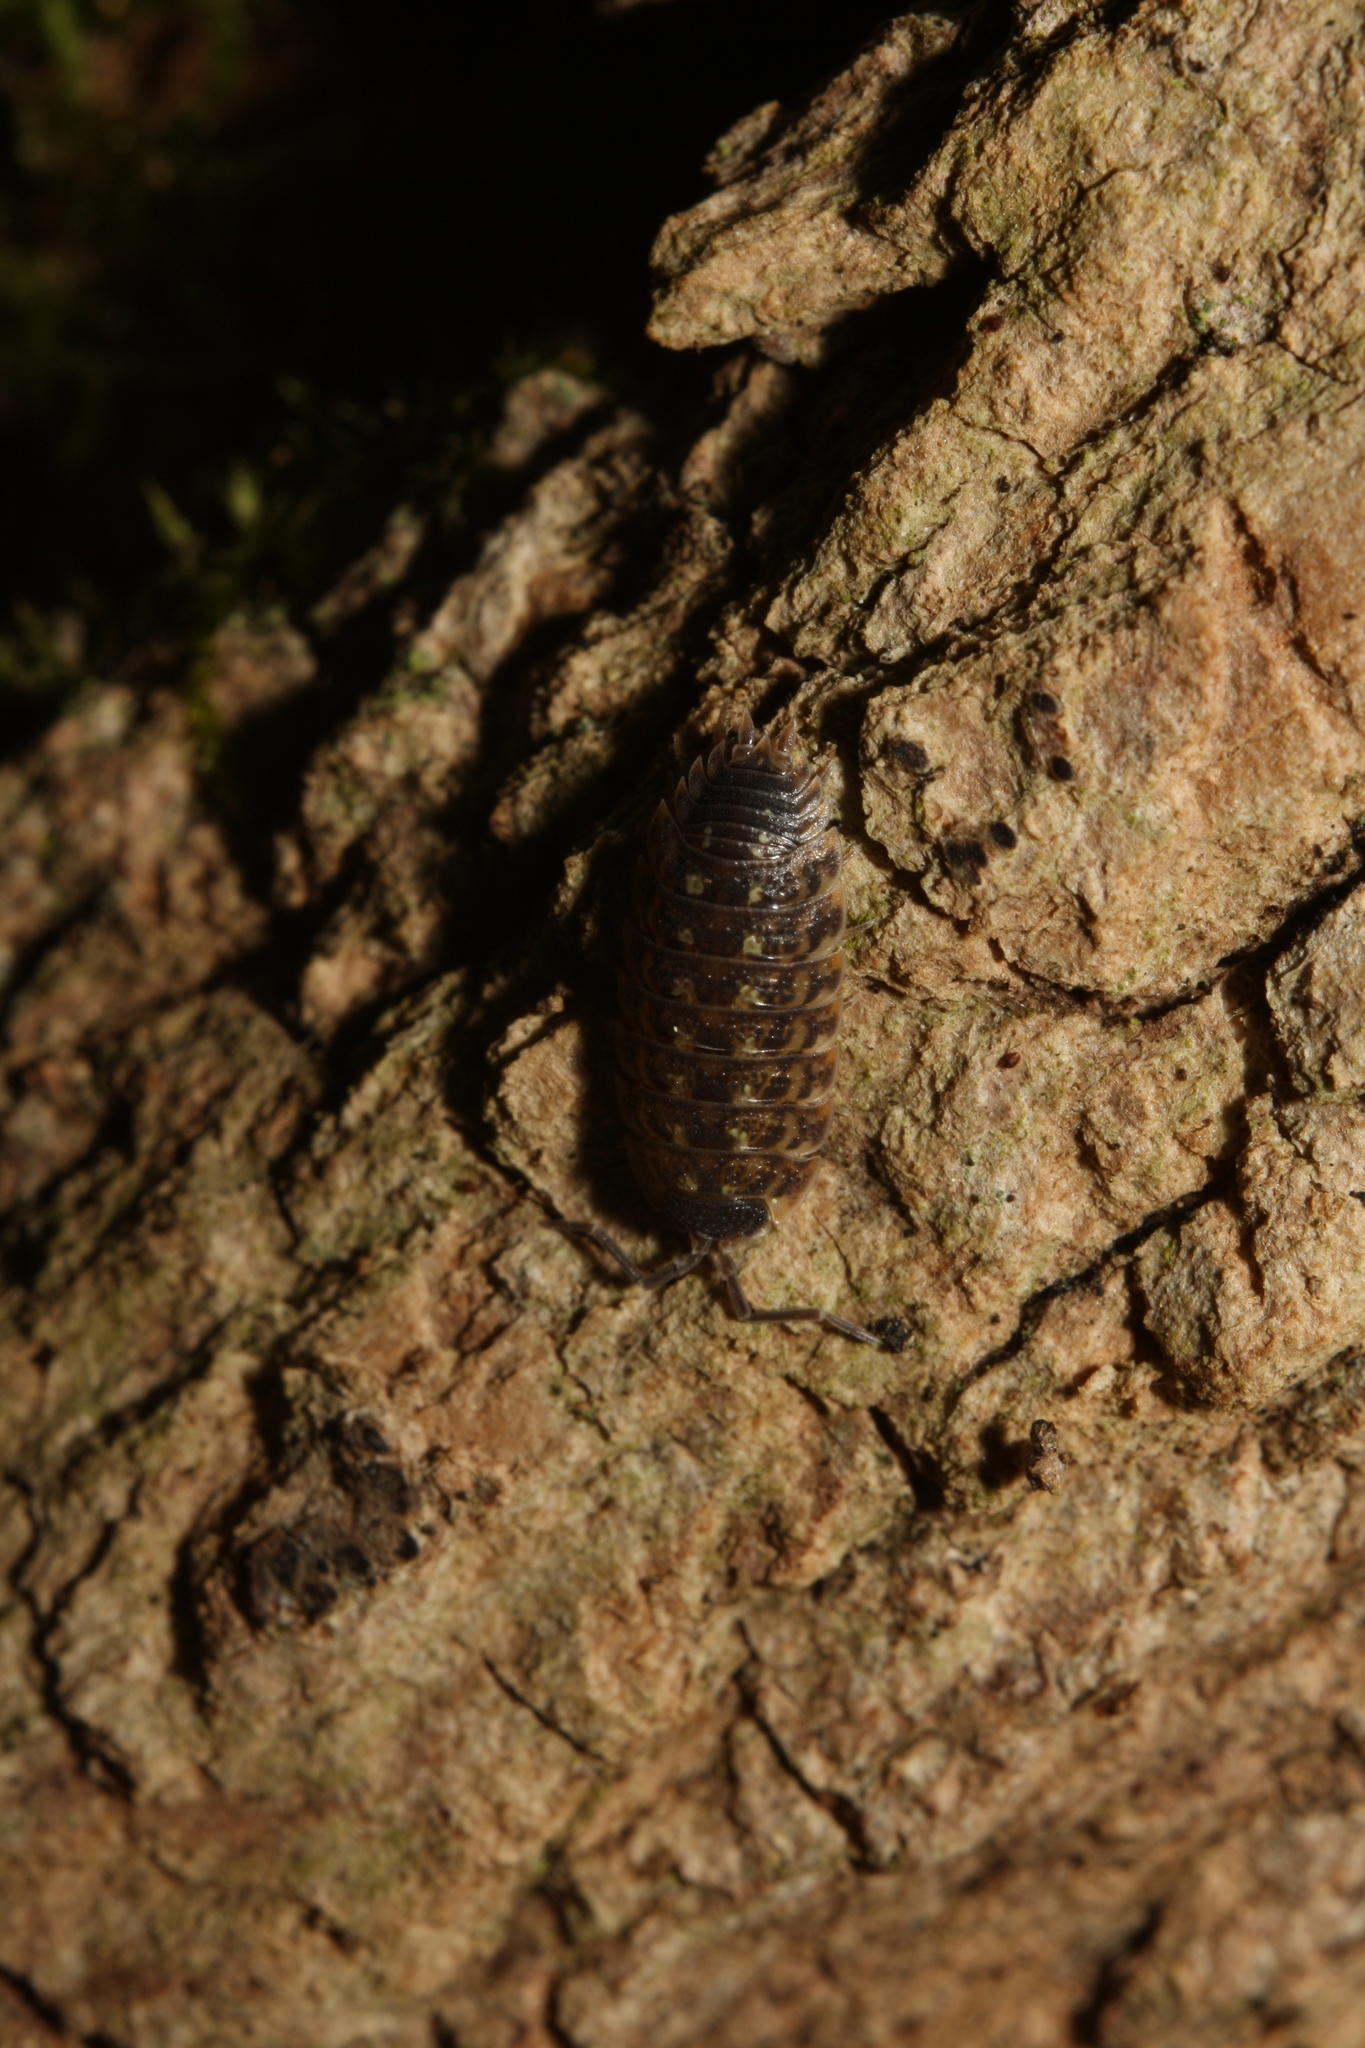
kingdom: Animalia
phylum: Arthropoda
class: Malacostraca
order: Isopoda
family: Porcellionidae
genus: Porcellio
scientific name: Porcellio spinicornis
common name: Painted woodlouse
